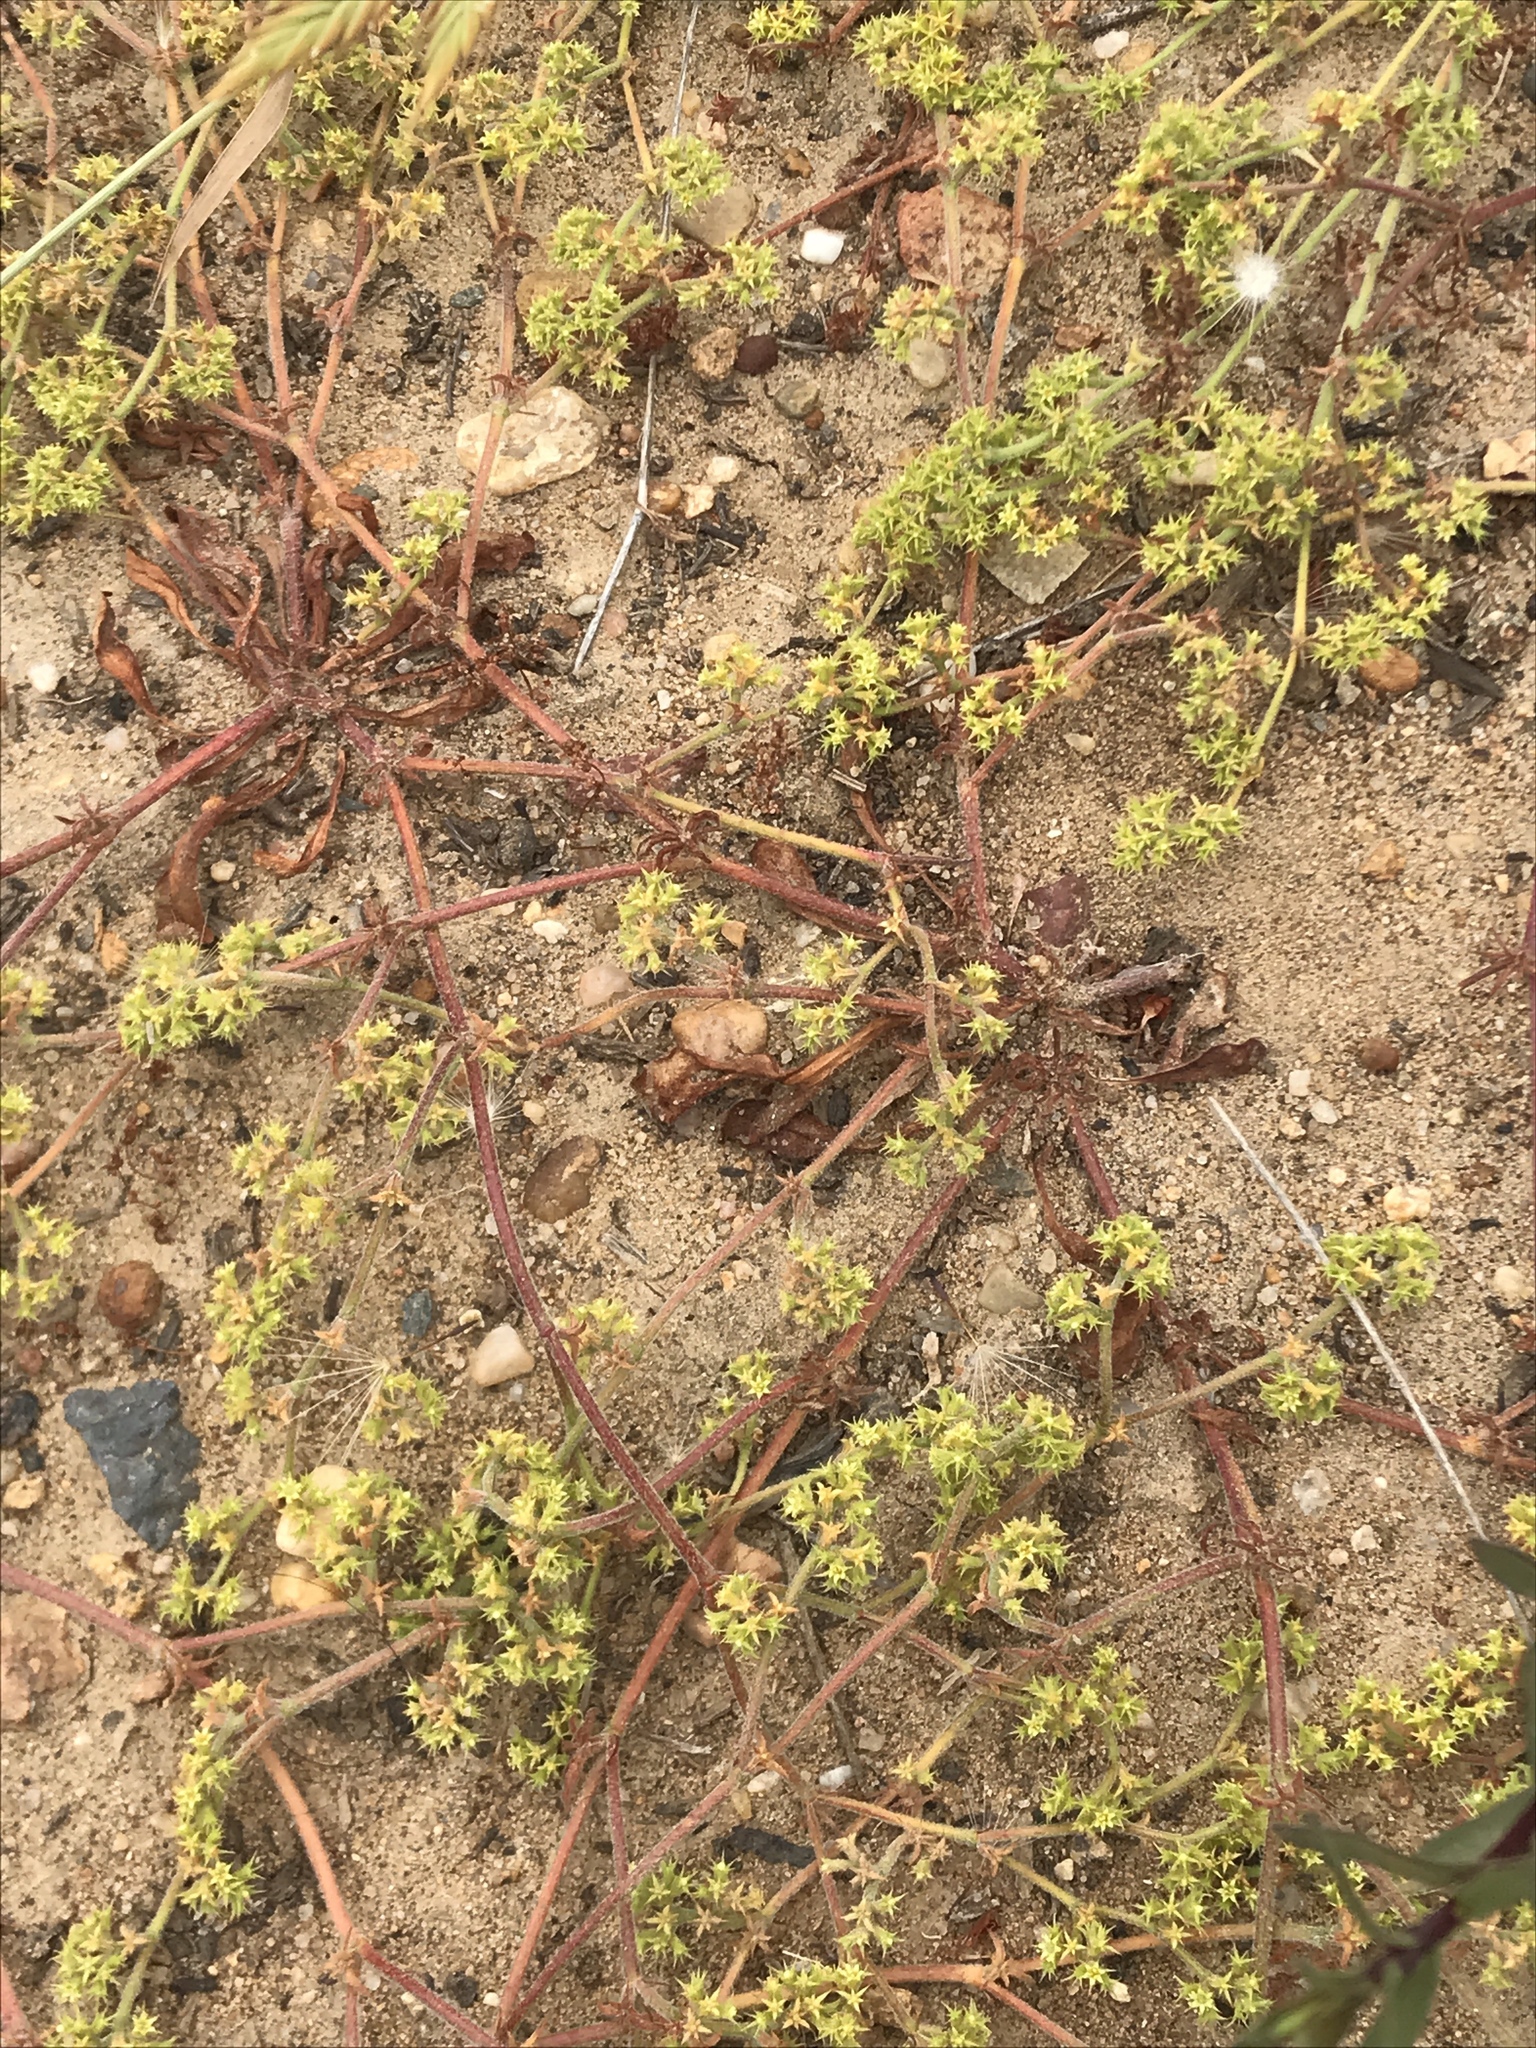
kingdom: Plantae
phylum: Tracheophyta
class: Magnoliopsida
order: Caryophyllales
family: Polygonaceae
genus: Chorizanthe
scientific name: Chorizanthe procumbens
